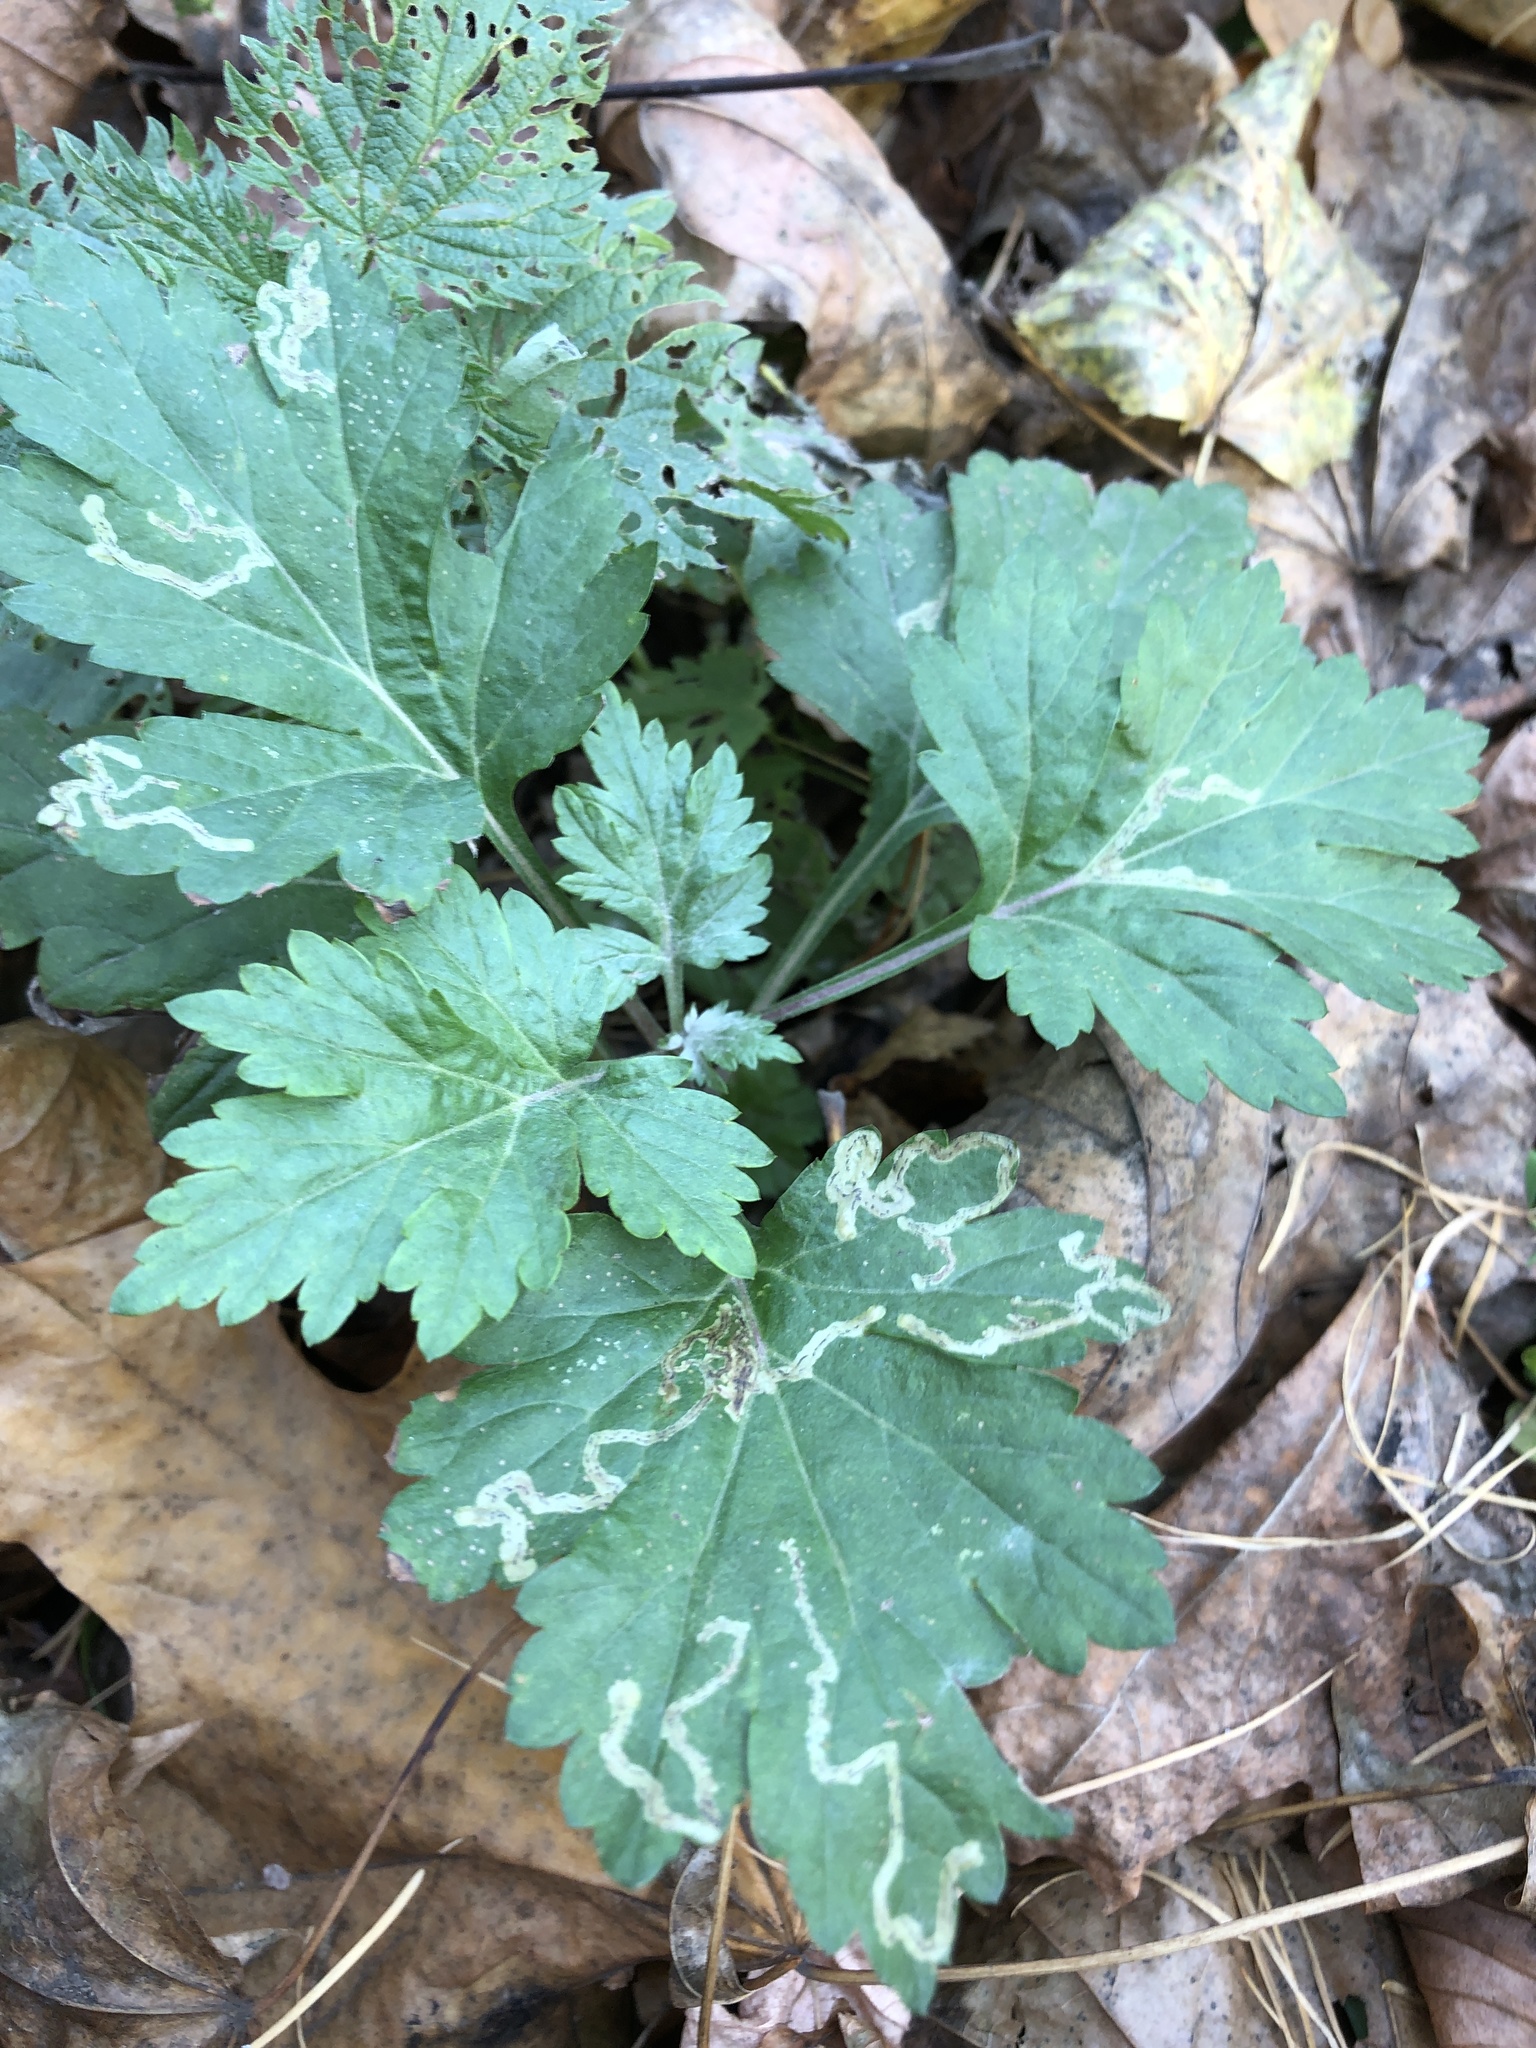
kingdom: Plantae
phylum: Tracheophyta
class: Magnoliopsida
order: Asterales
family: Asteraceae
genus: Artemisia
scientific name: Artemisia vulgaris
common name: Mugwort
